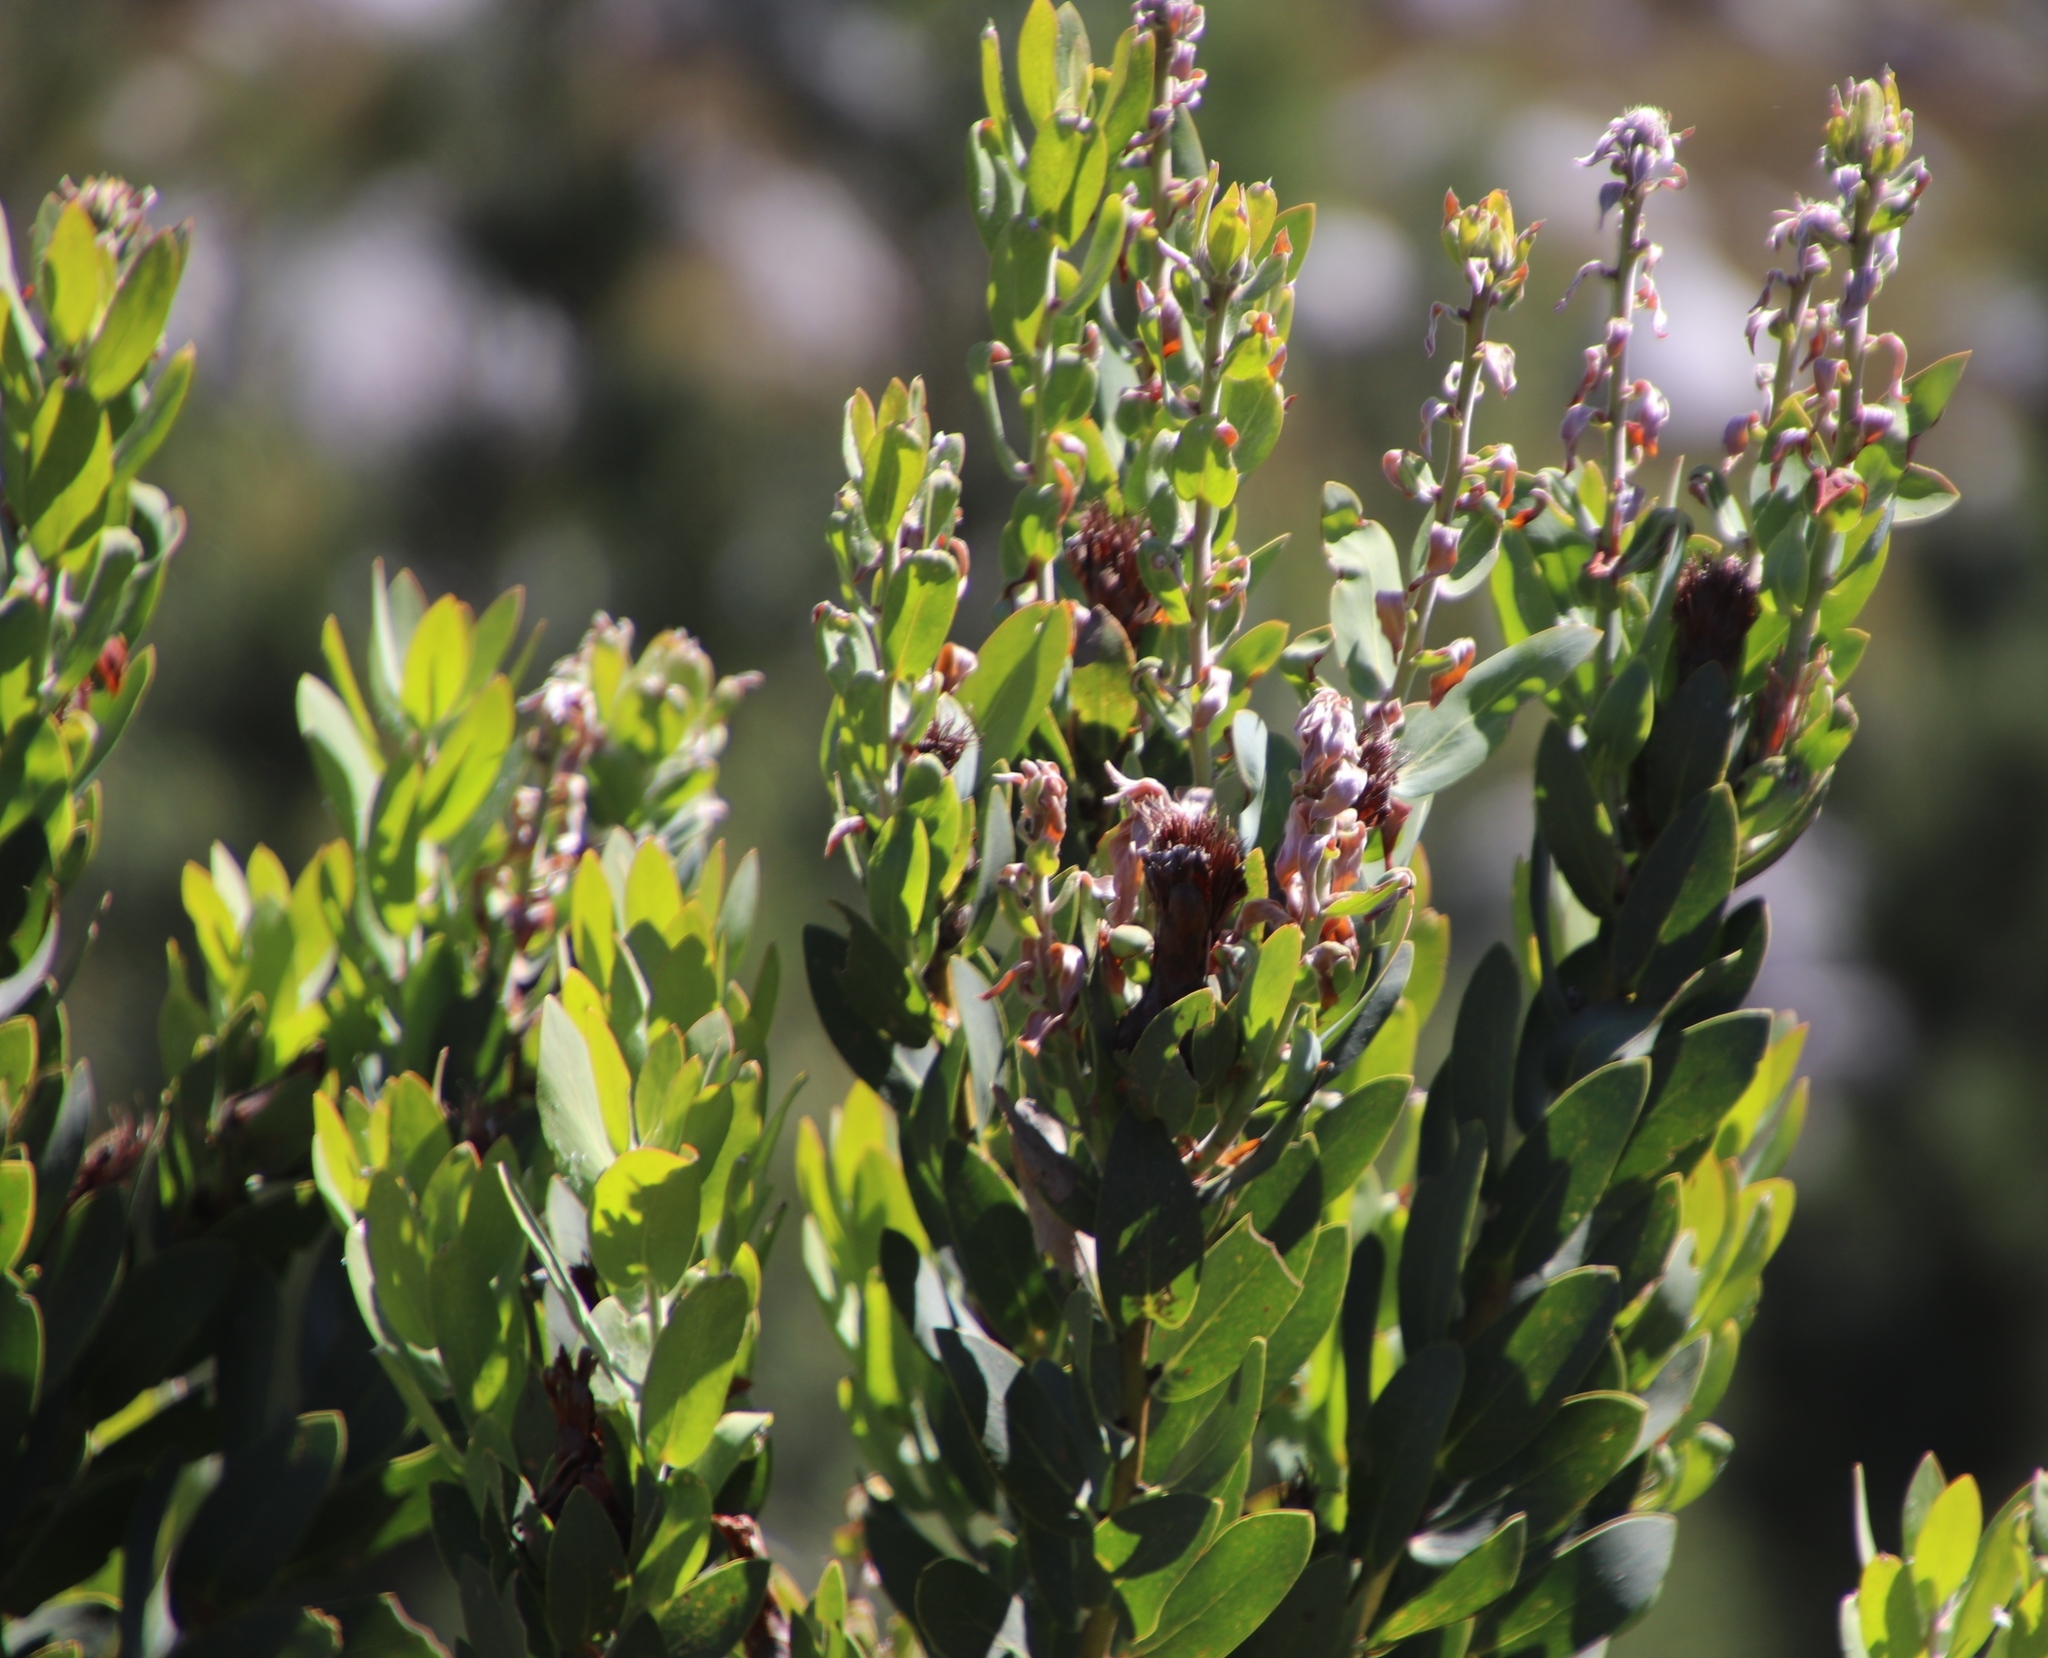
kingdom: Plantae
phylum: Tracheophyta
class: Magnoliopsida
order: Proteales
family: Proteaceae
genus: Protea
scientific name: Protea lacticolor
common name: Hottentot sugarbush
